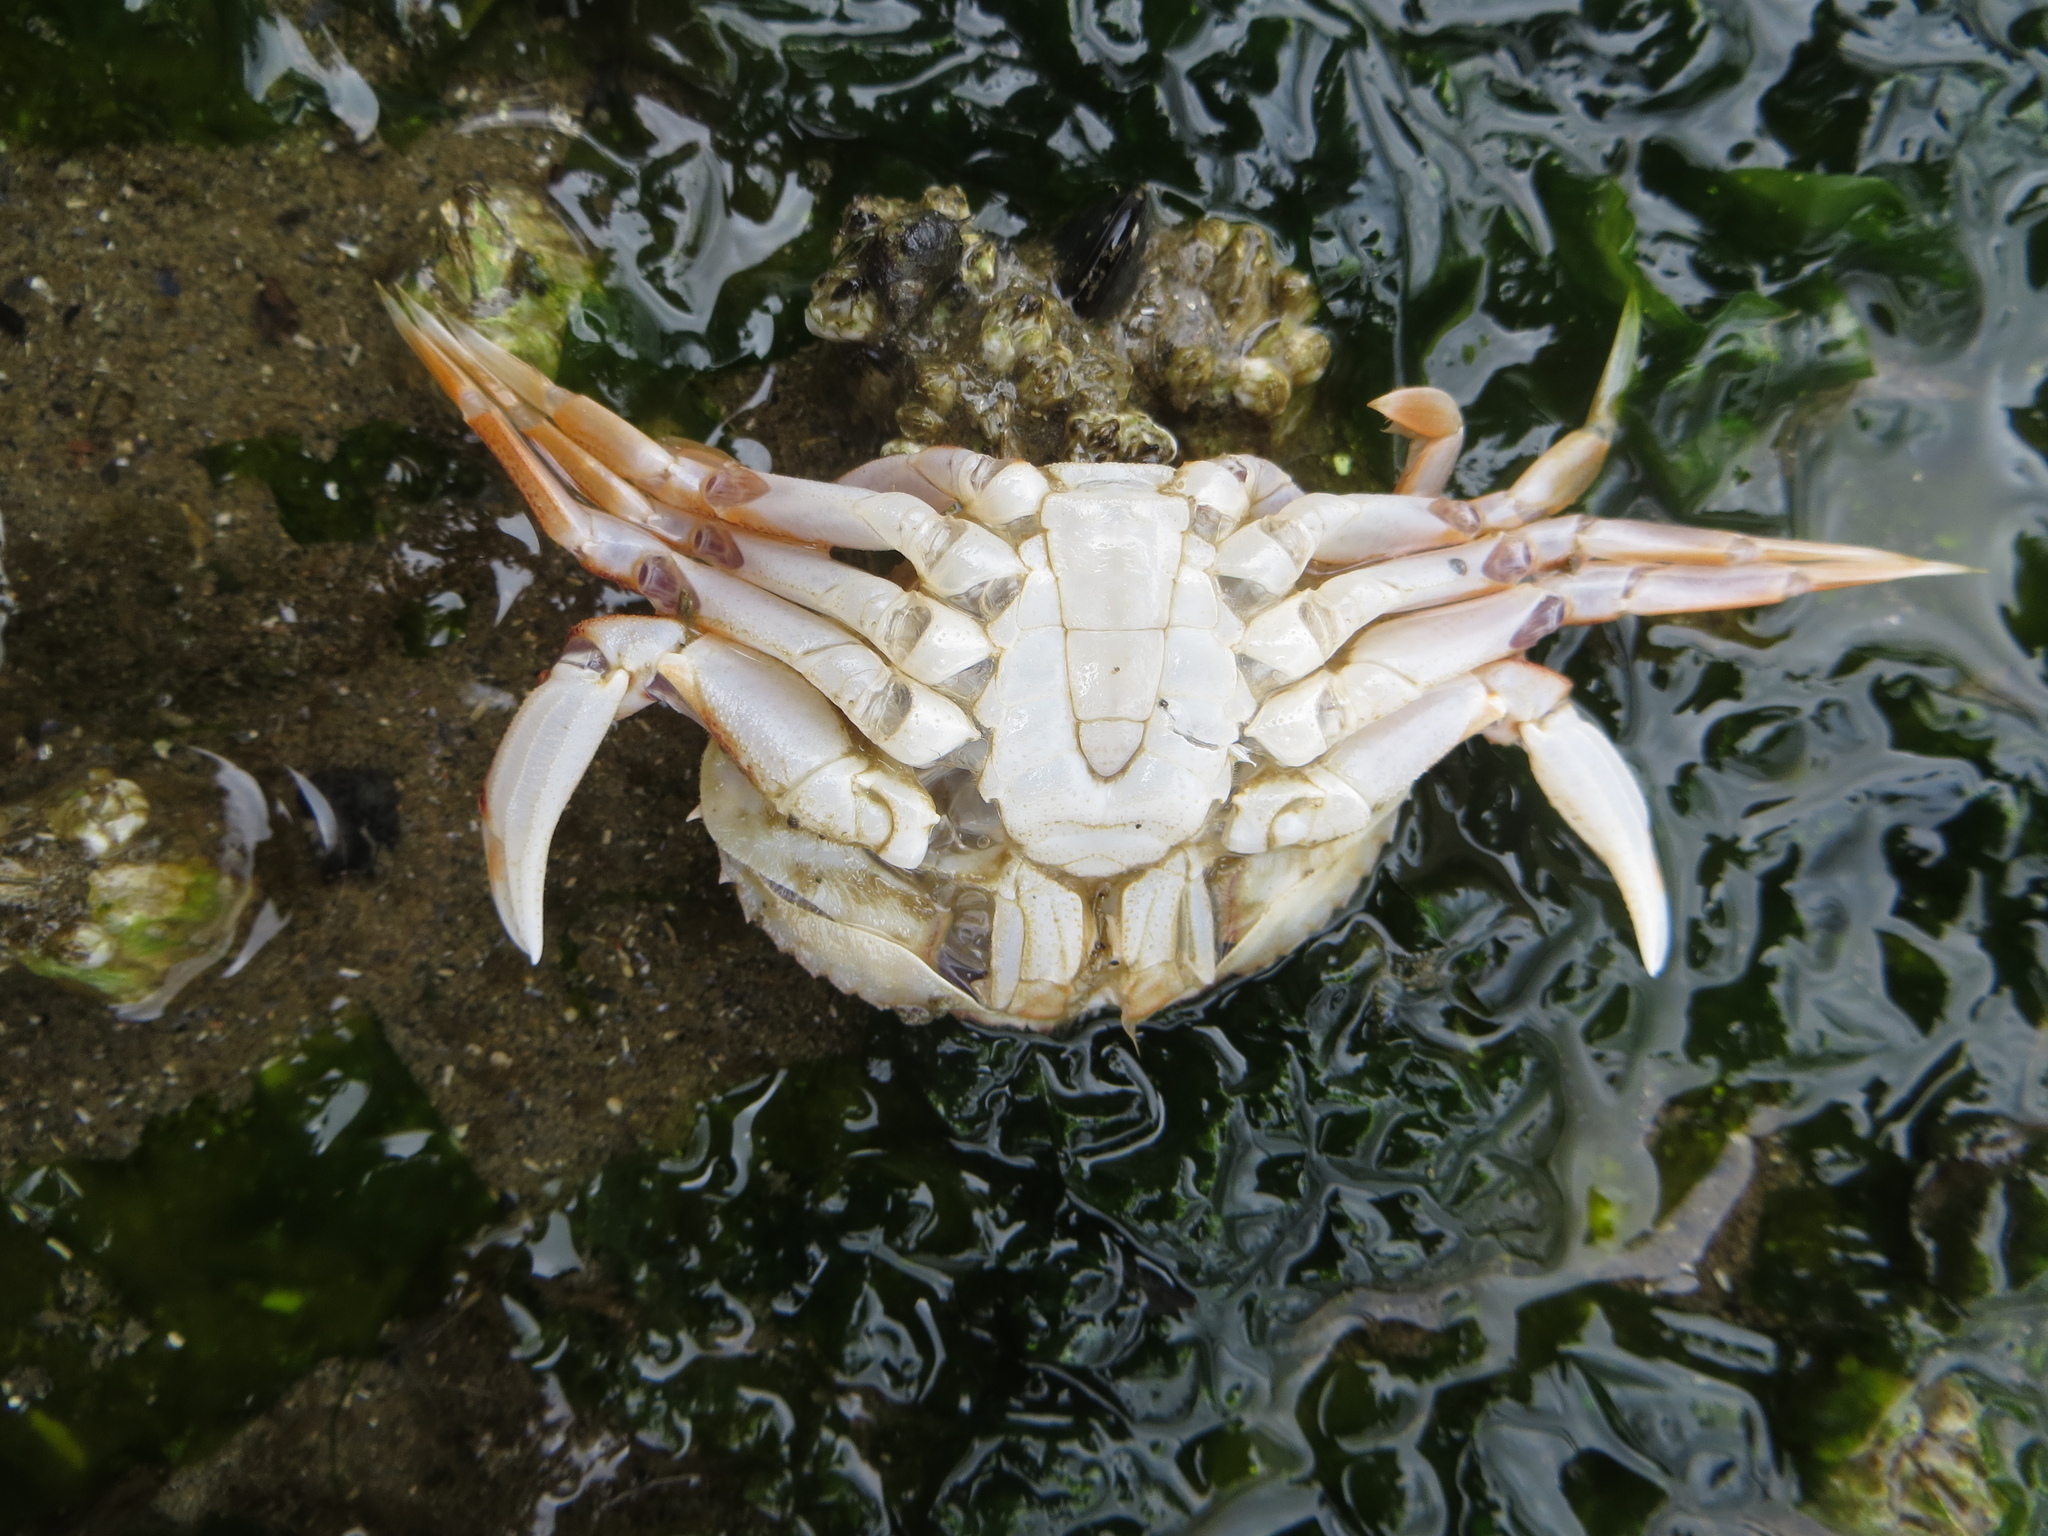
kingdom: Animalia
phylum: Arthropoda
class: Malacostraca
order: Decapoda
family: Cancridae
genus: Metacarcinus
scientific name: Metacarcinus magister
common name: Californian crab
